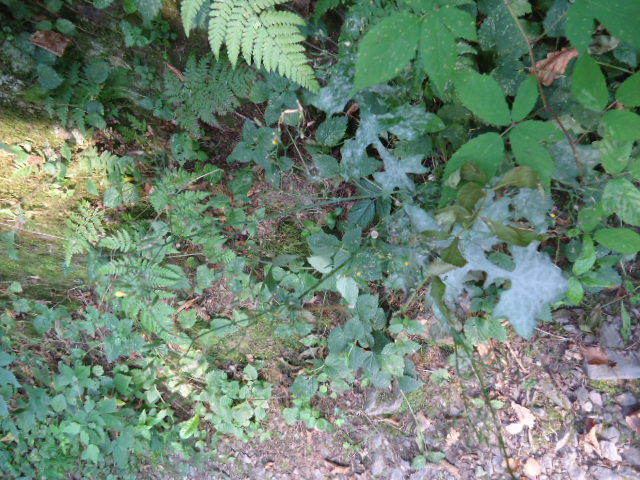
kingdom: Plantae
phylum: Tracheophyta
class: Magnoliopsida
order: Asterales
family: Asteraceae
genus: Mycelis
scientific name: Mycelis muralis
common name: Wall lettuce
